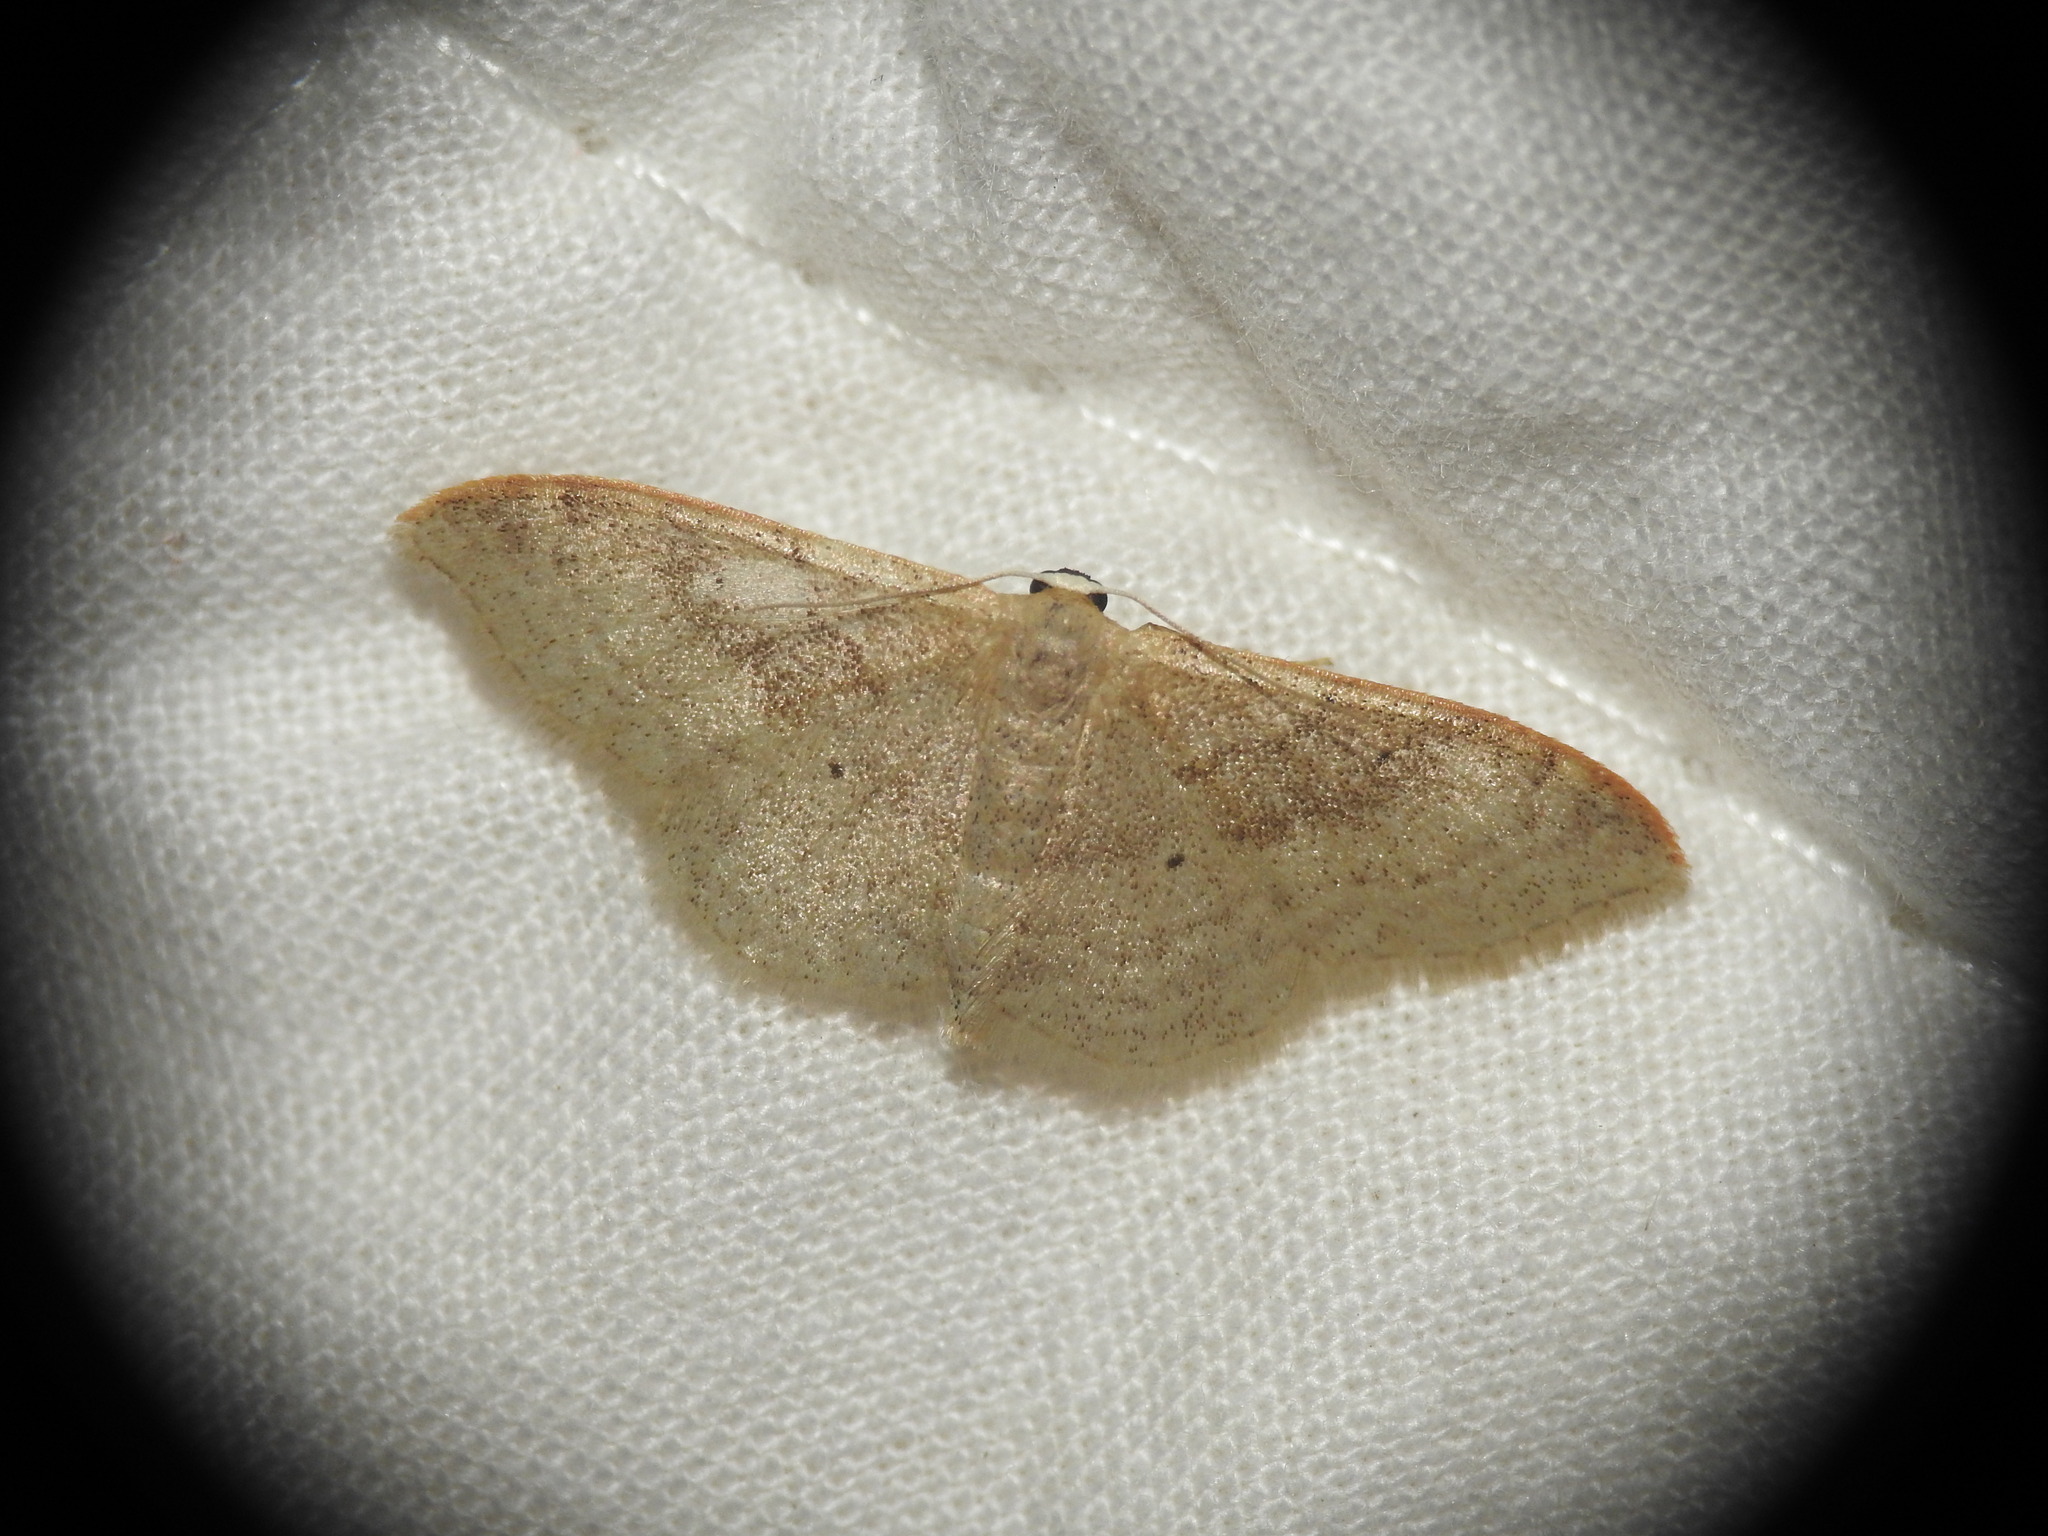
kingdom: Animalia
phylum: Arthropoda
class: Insecta
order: Lepidoptera
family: Geometridae
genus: Idaea
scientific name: Idaea degeneraria
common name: Portland ribbon wave
